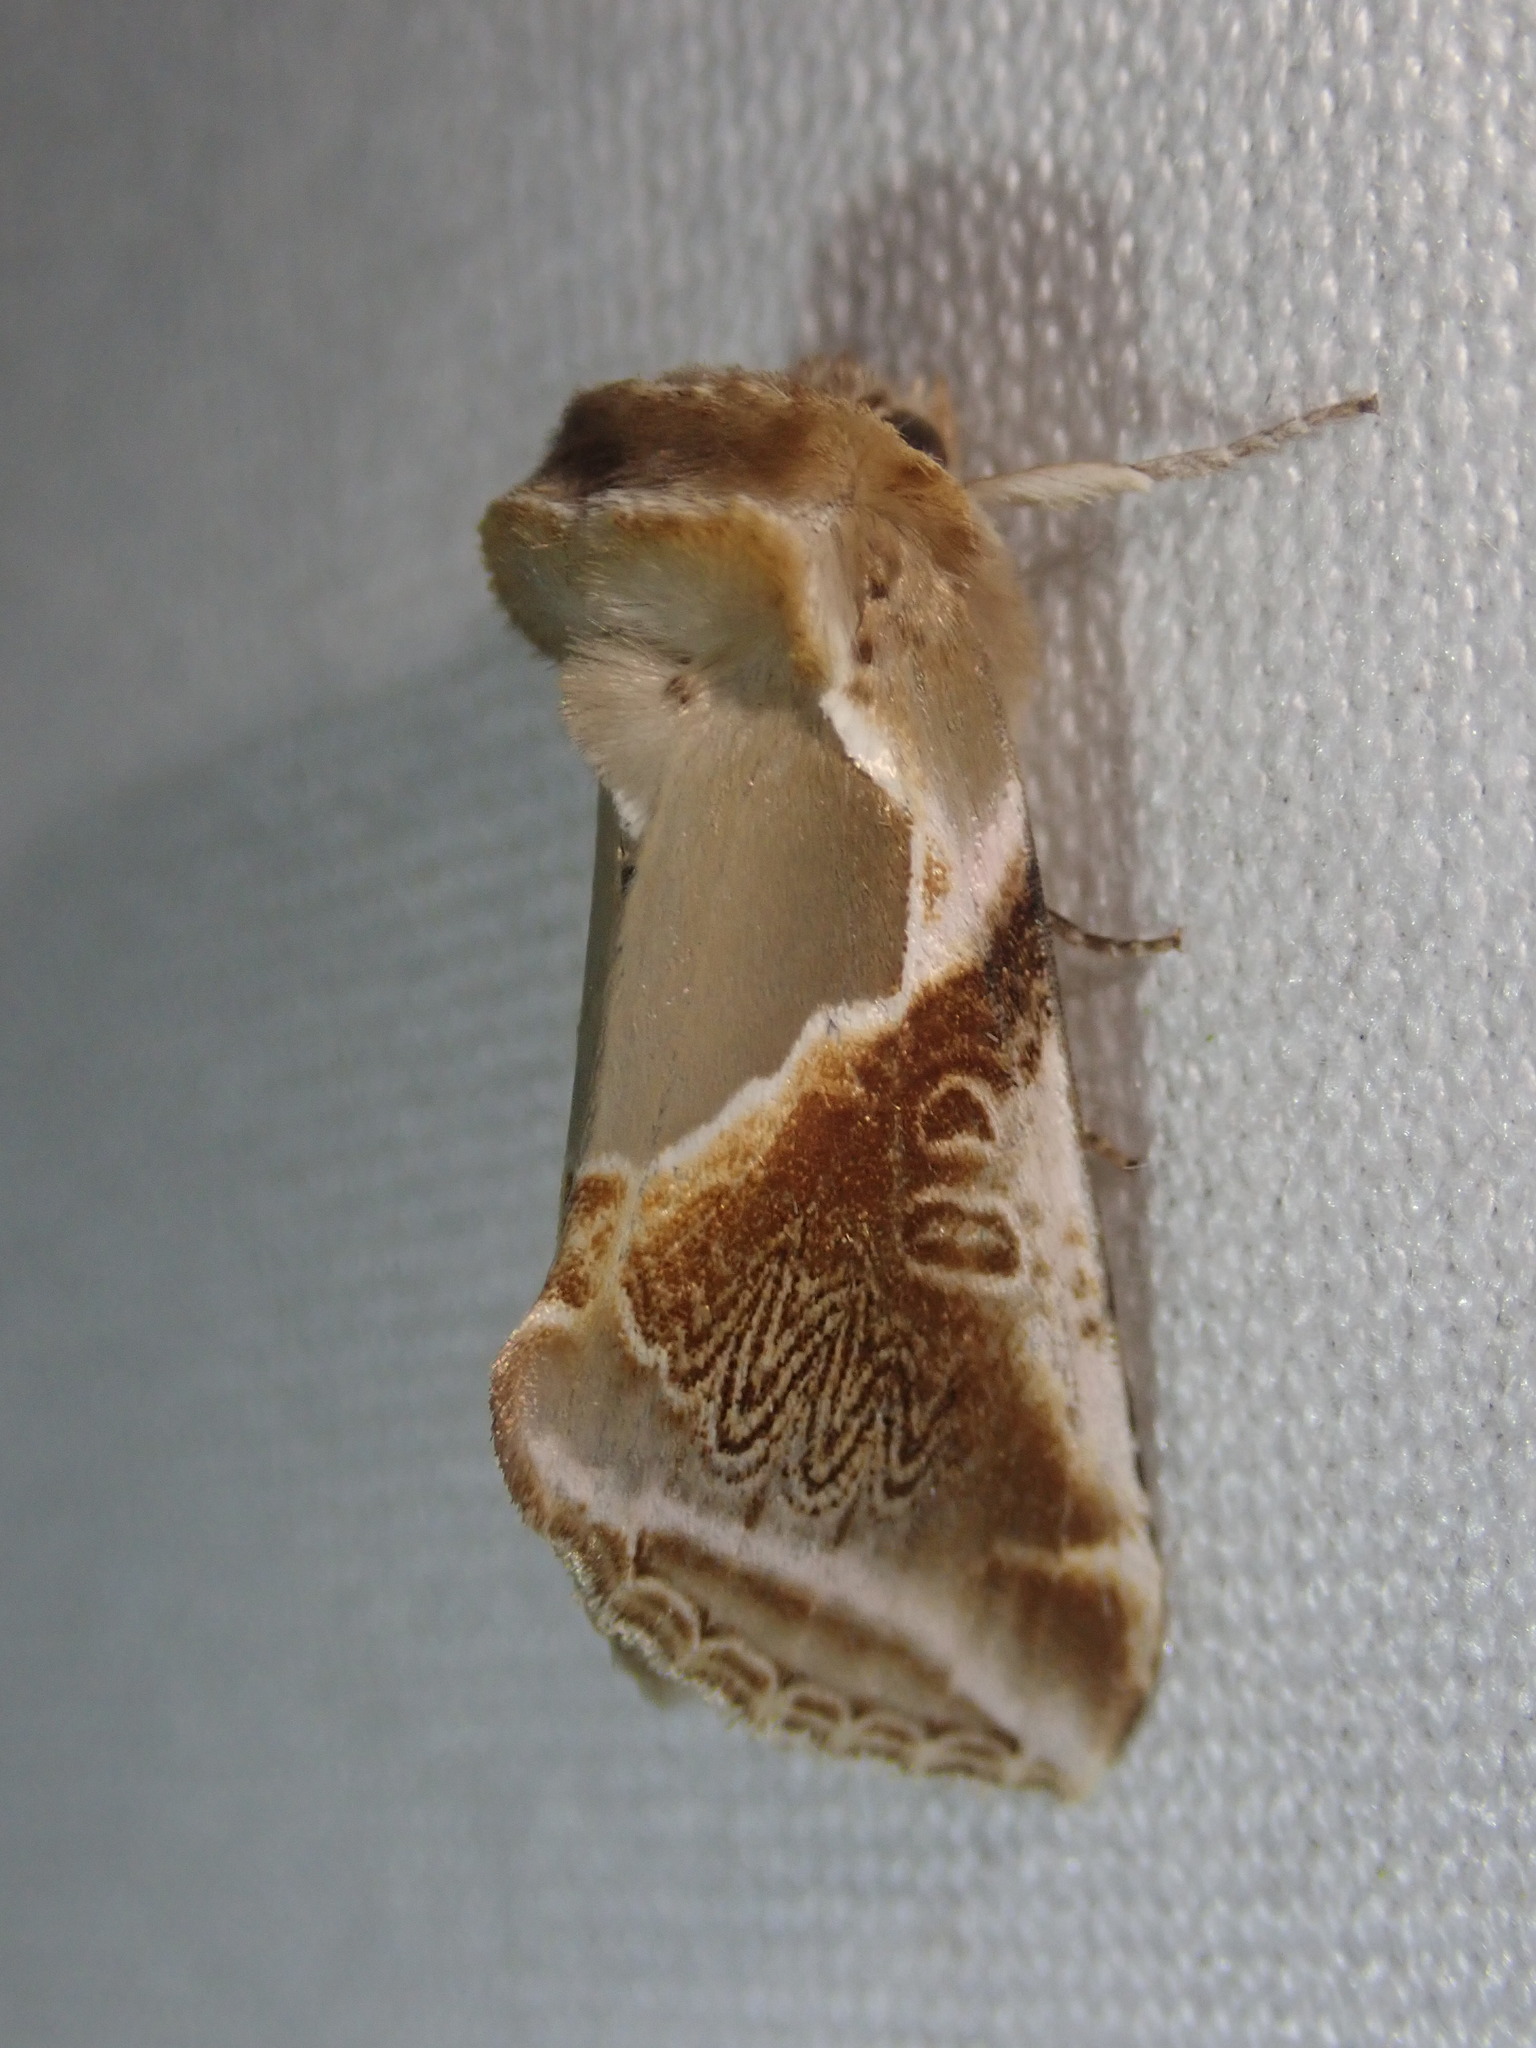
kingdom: Animalia
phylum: Arthropoda
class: Insecta
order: Lepidoptera
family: Drepanidae
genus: Habrosyne
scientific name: Habrosyne pyritoides
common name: Buff arches
